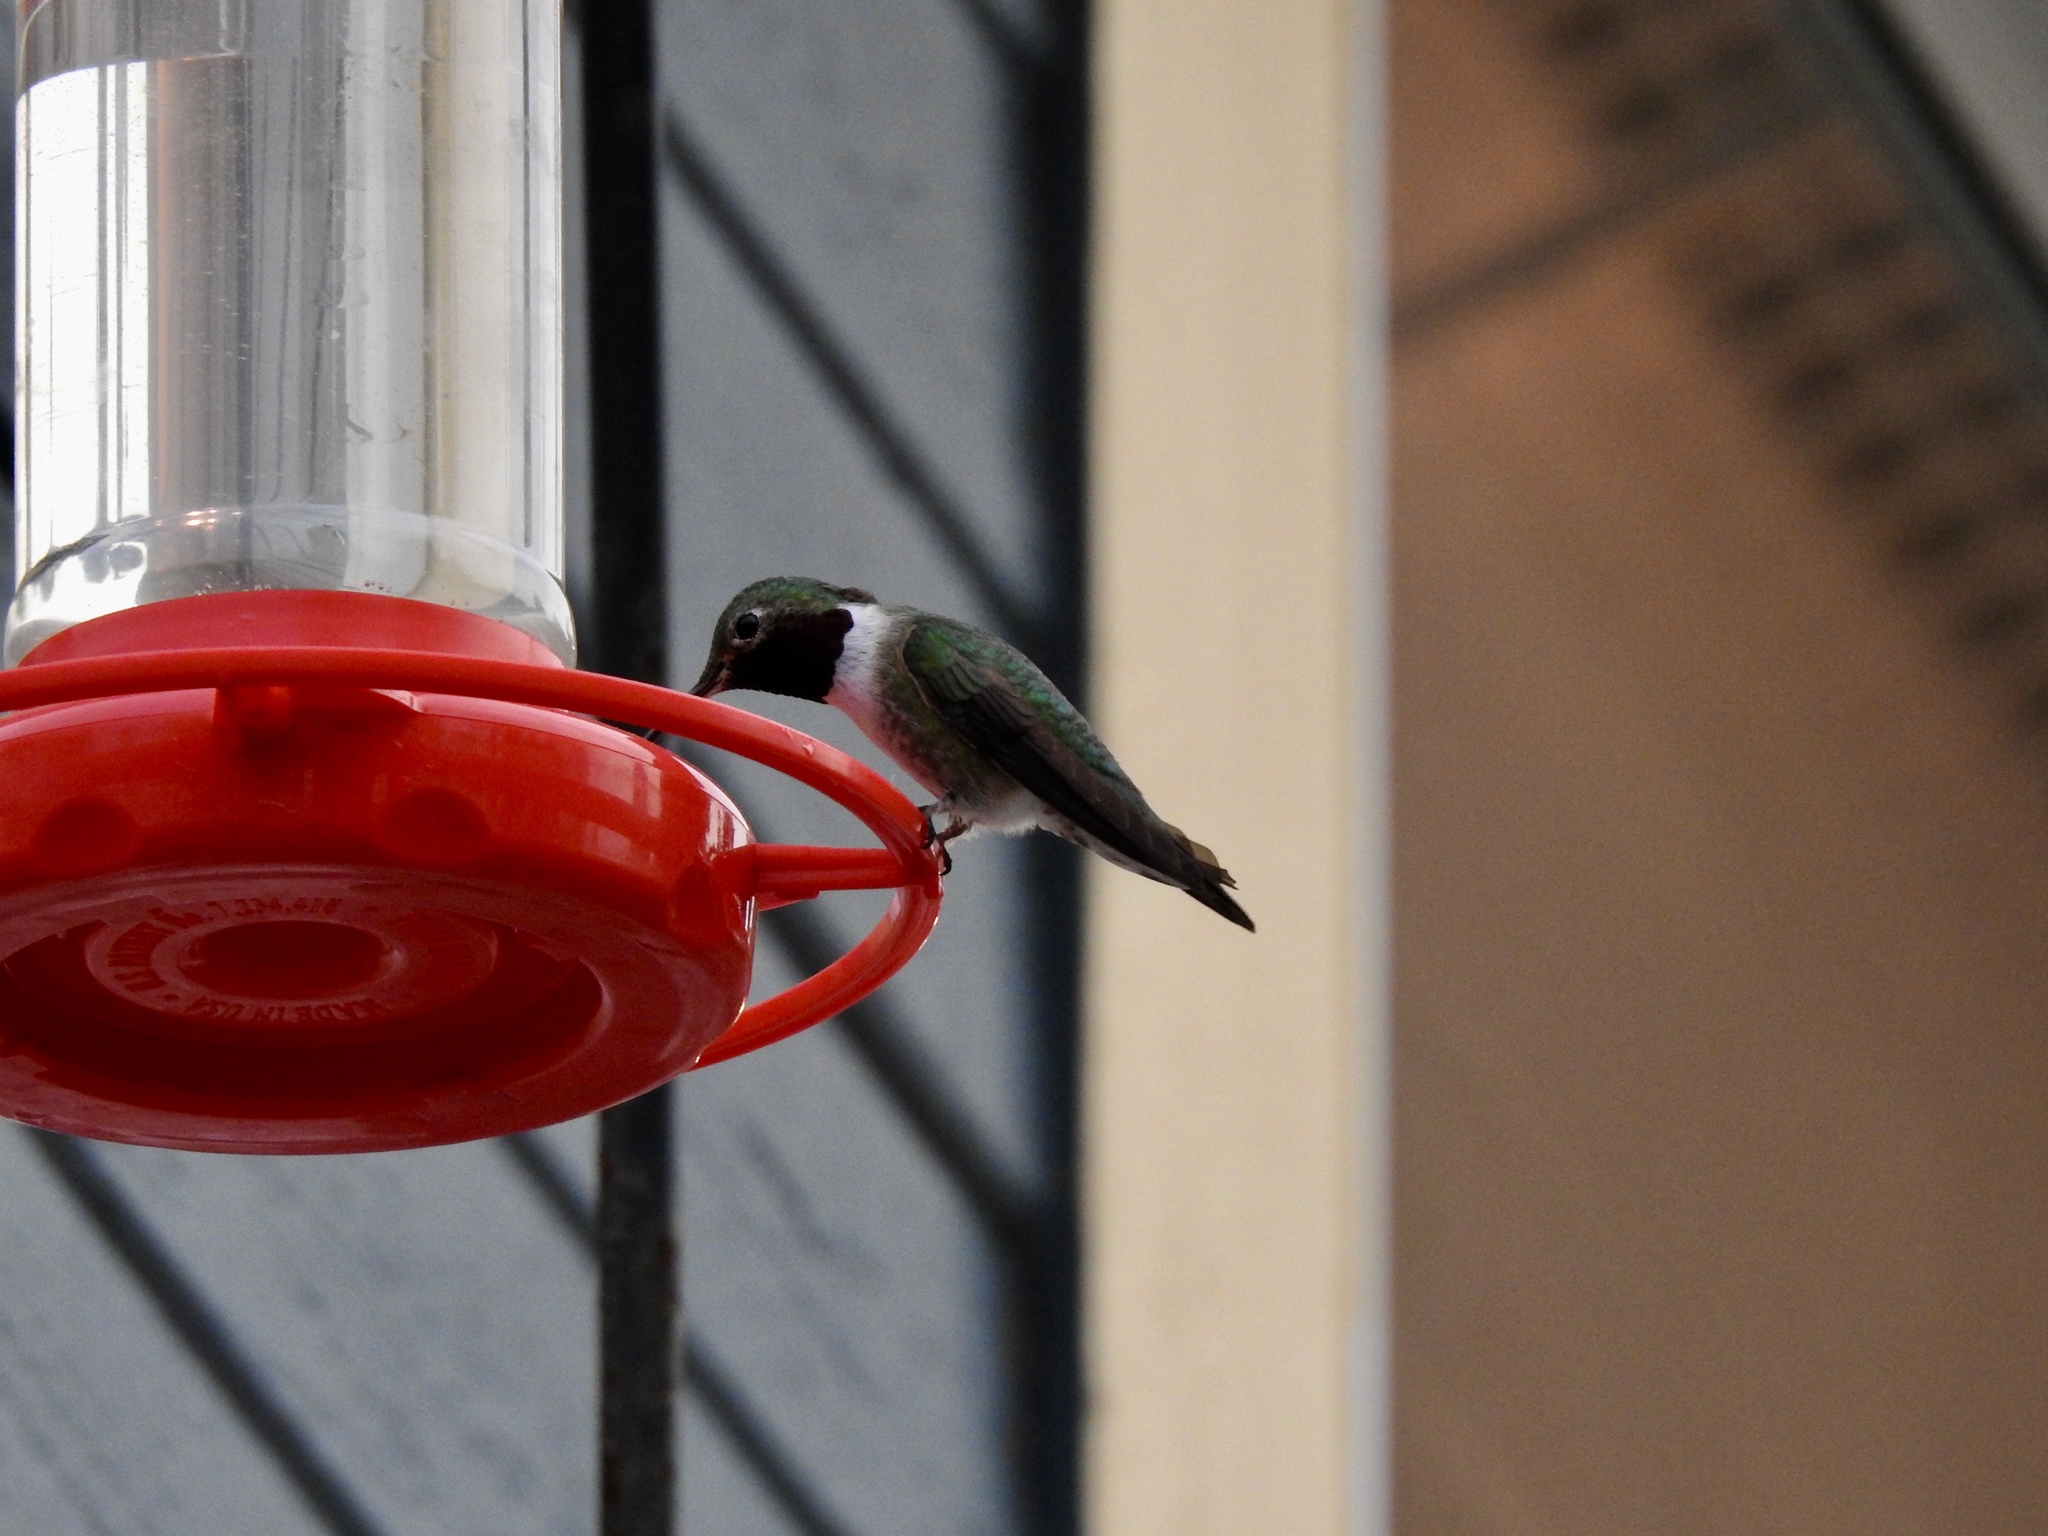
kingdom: Animalia
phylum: Chordata
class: Aves
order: Apodiformes
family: Trochilidae
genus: Selasphorus
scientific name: Selasphorus platycercus
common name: Broad-tailed hummingbird
